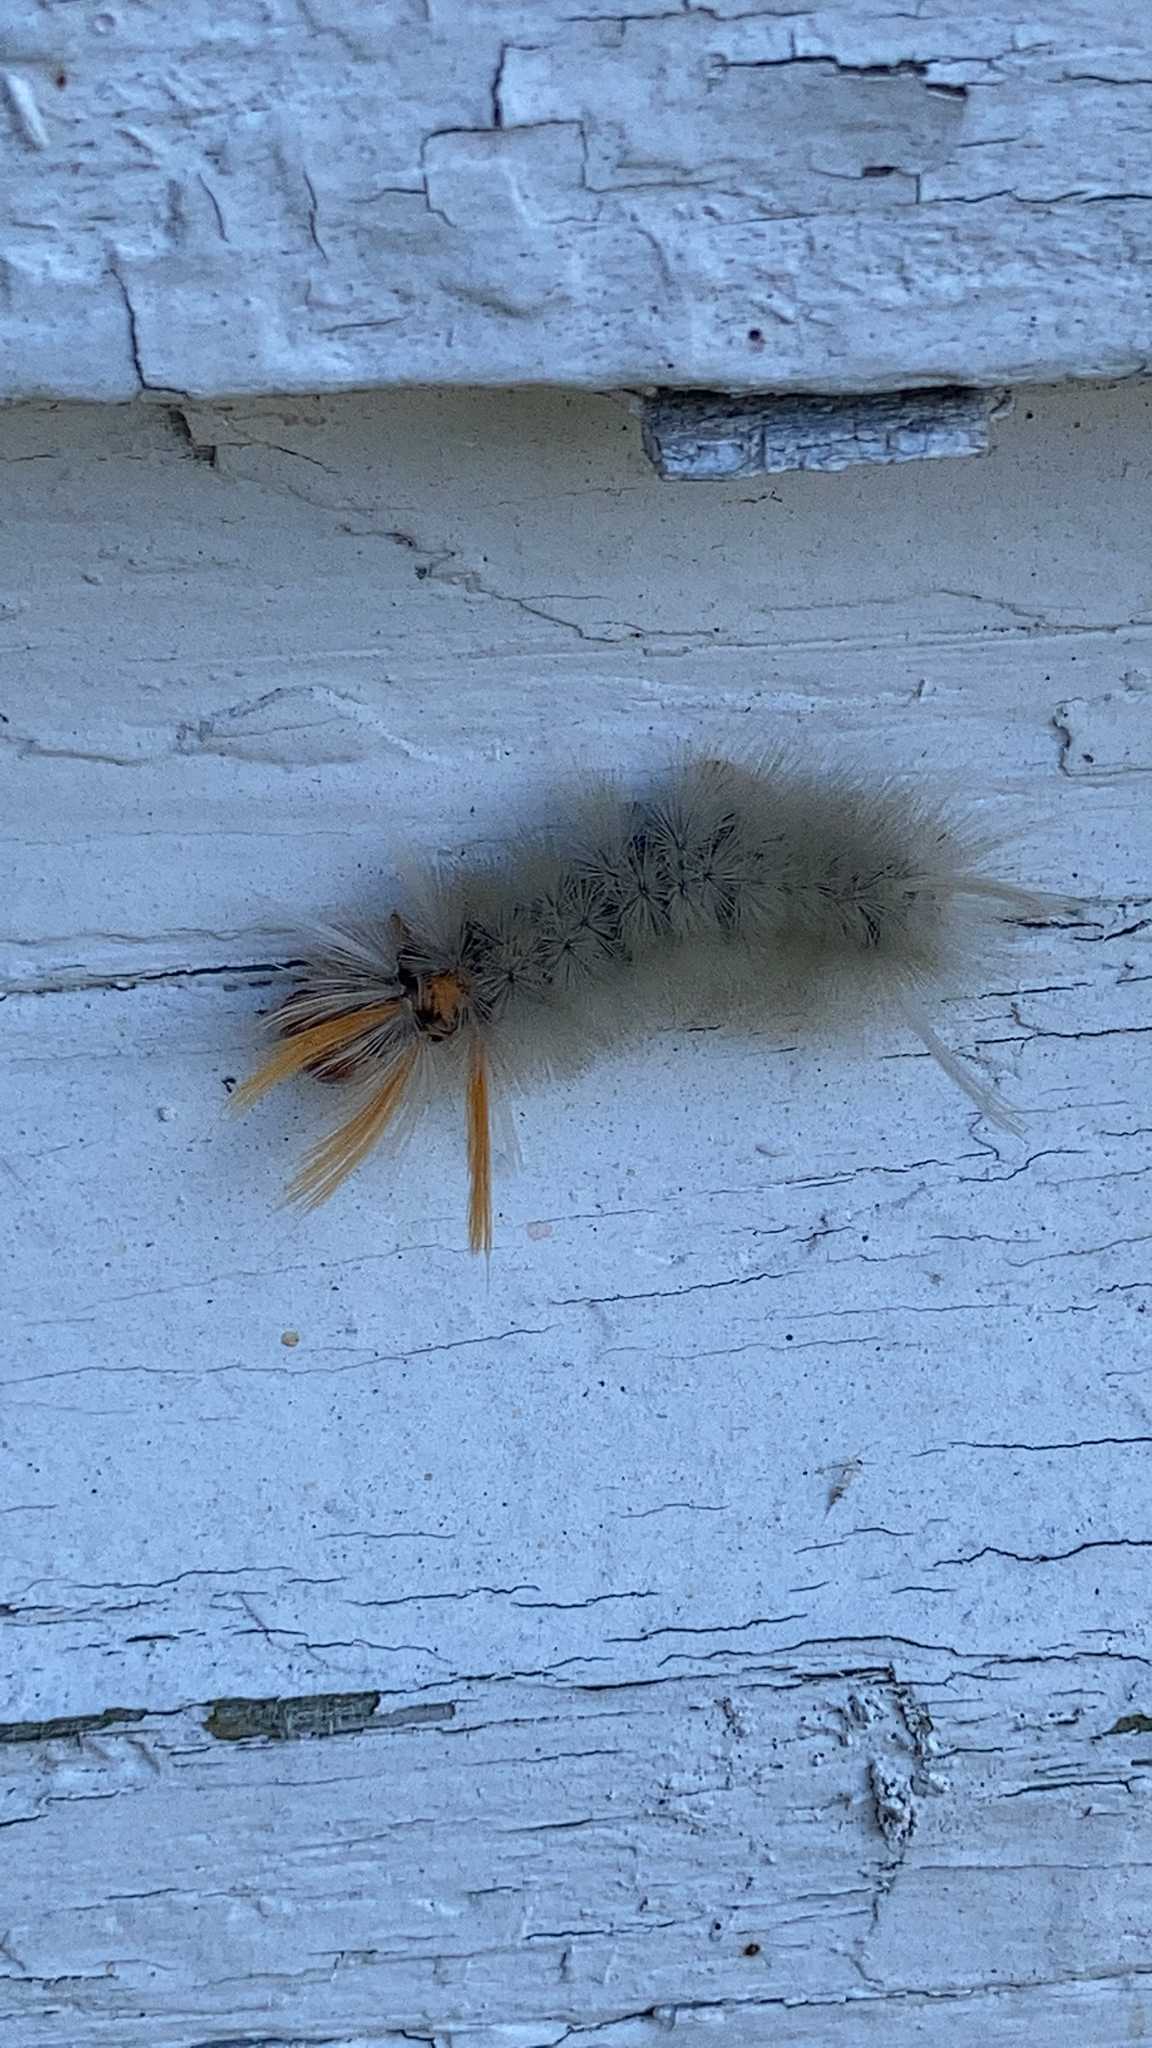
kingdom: Animalia
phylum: Arthropoda
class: Insecta
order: Lepidoptera
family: Erebidae
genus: Halysidota
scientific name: Halysidota harrisii
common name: Sycamore tussock moth
